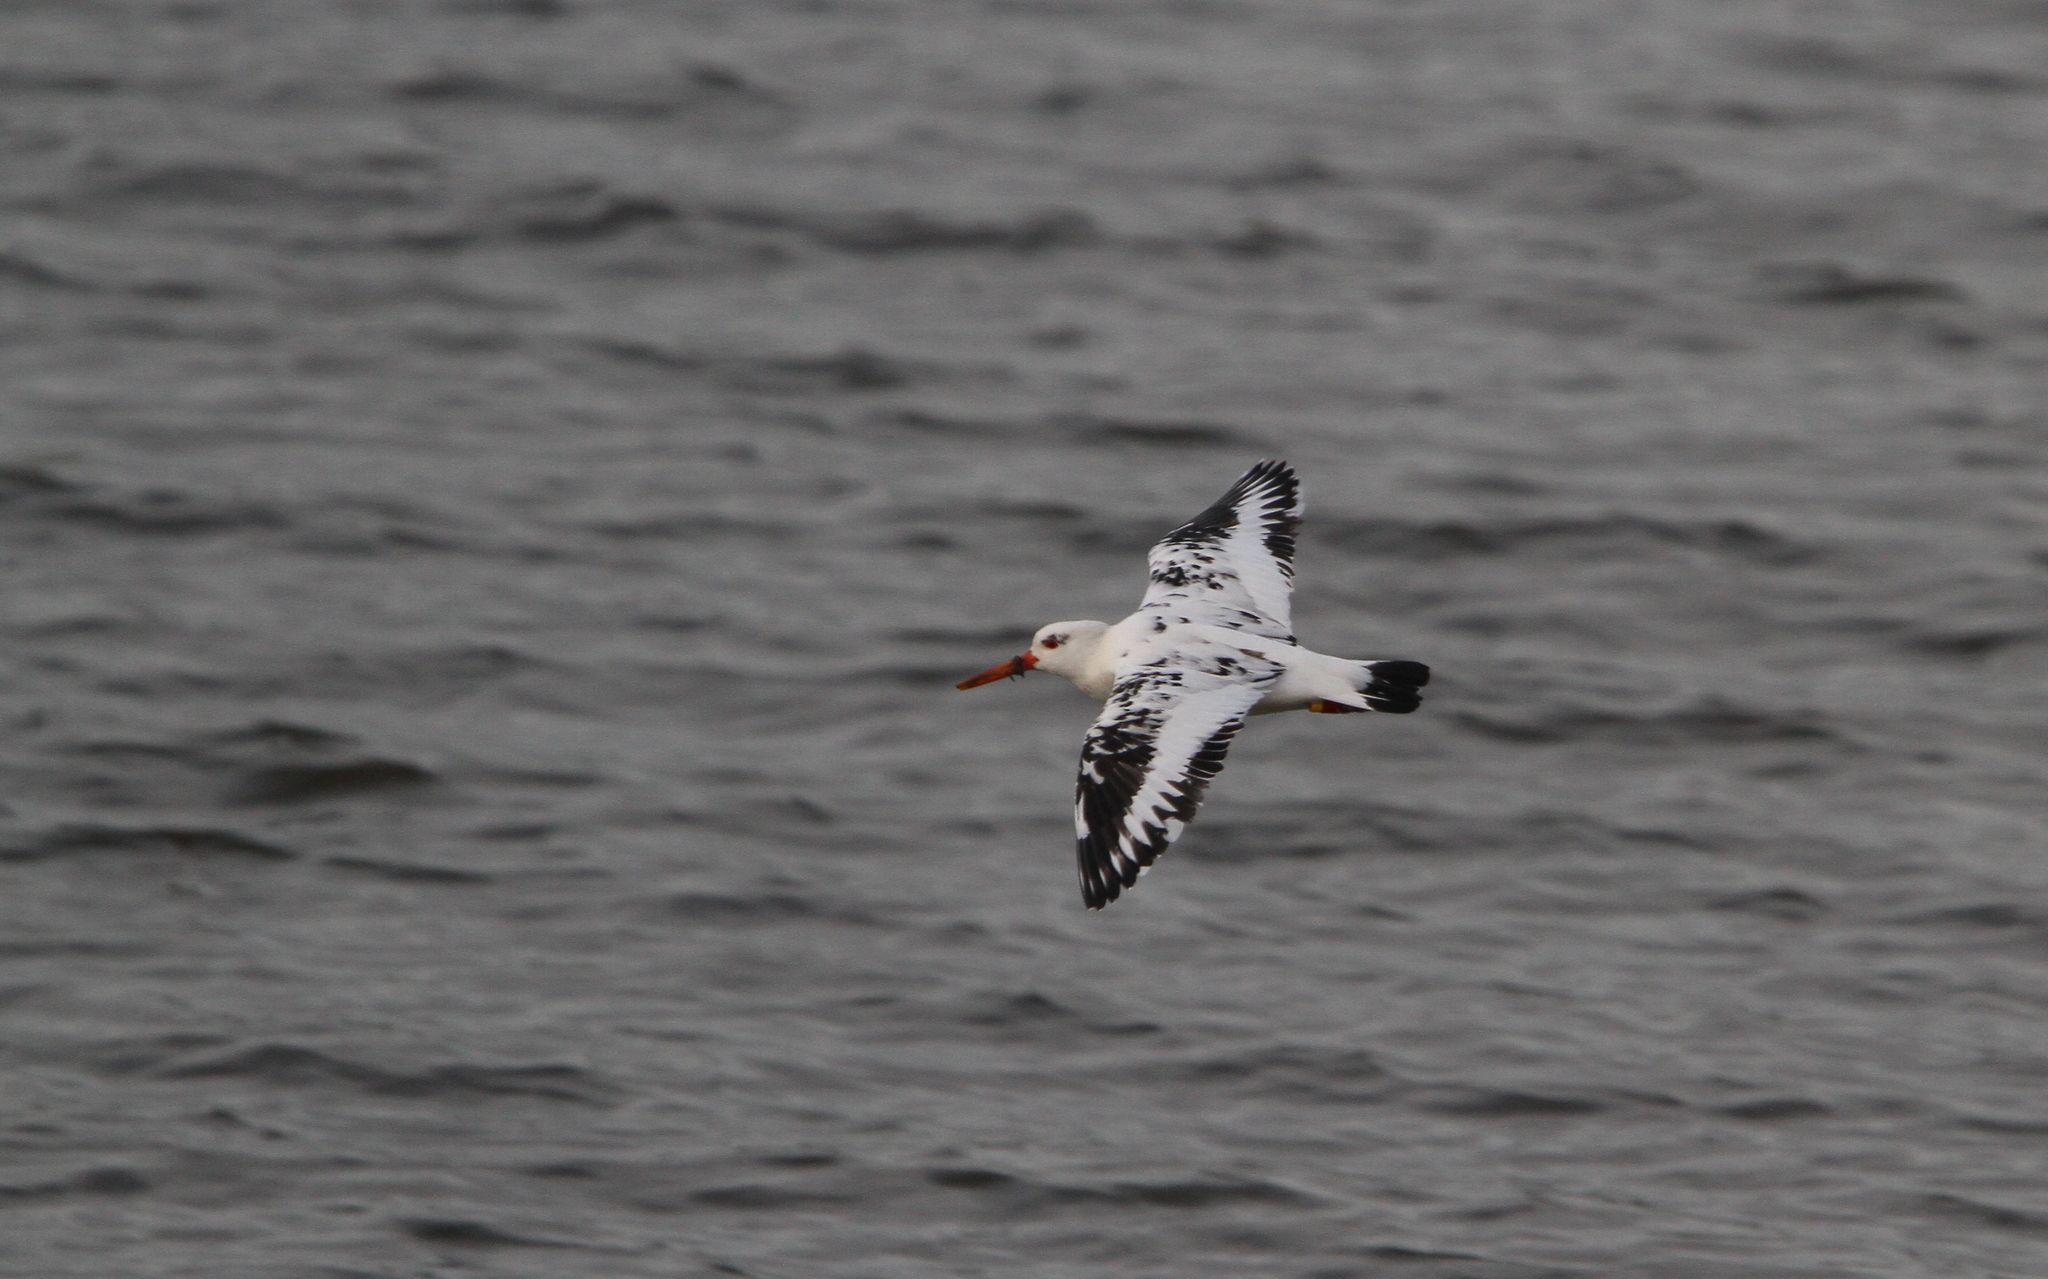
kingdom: Animalia
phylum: Chordata
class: Aves
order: Charadriiformes
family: Haematopodidae
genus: Haematopus
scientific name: Haematopus ostralegus
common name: Eurasian oystercatcher
